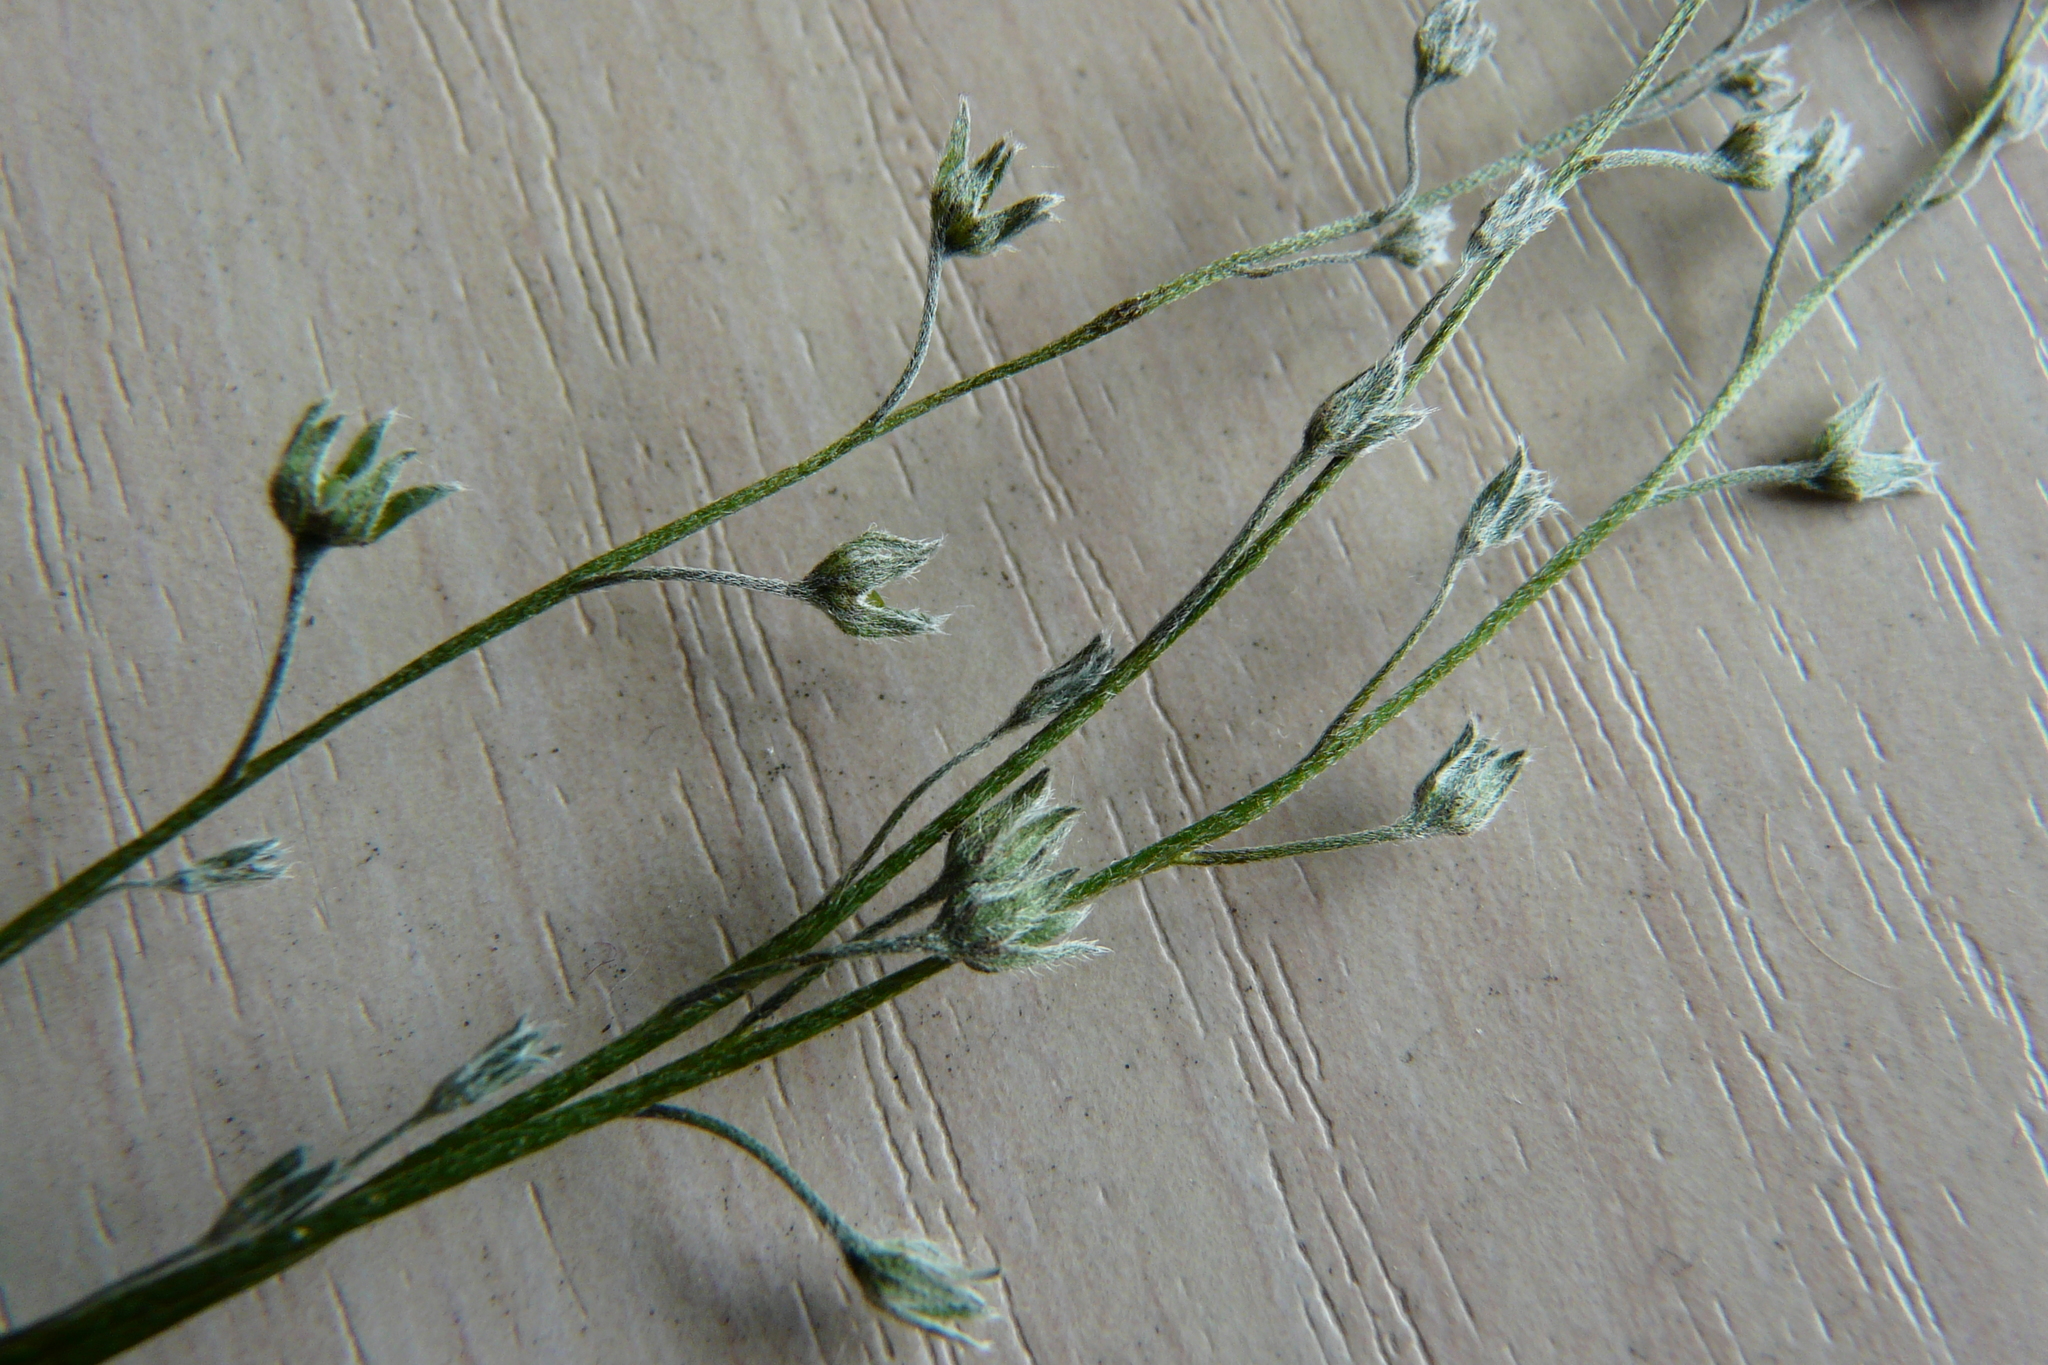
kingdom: Plantae
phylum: Tracheophyta
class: Magnoliopsida
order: Boraginales
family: Boraginaceae
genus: Myosotis
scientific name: Myosotis popovii
